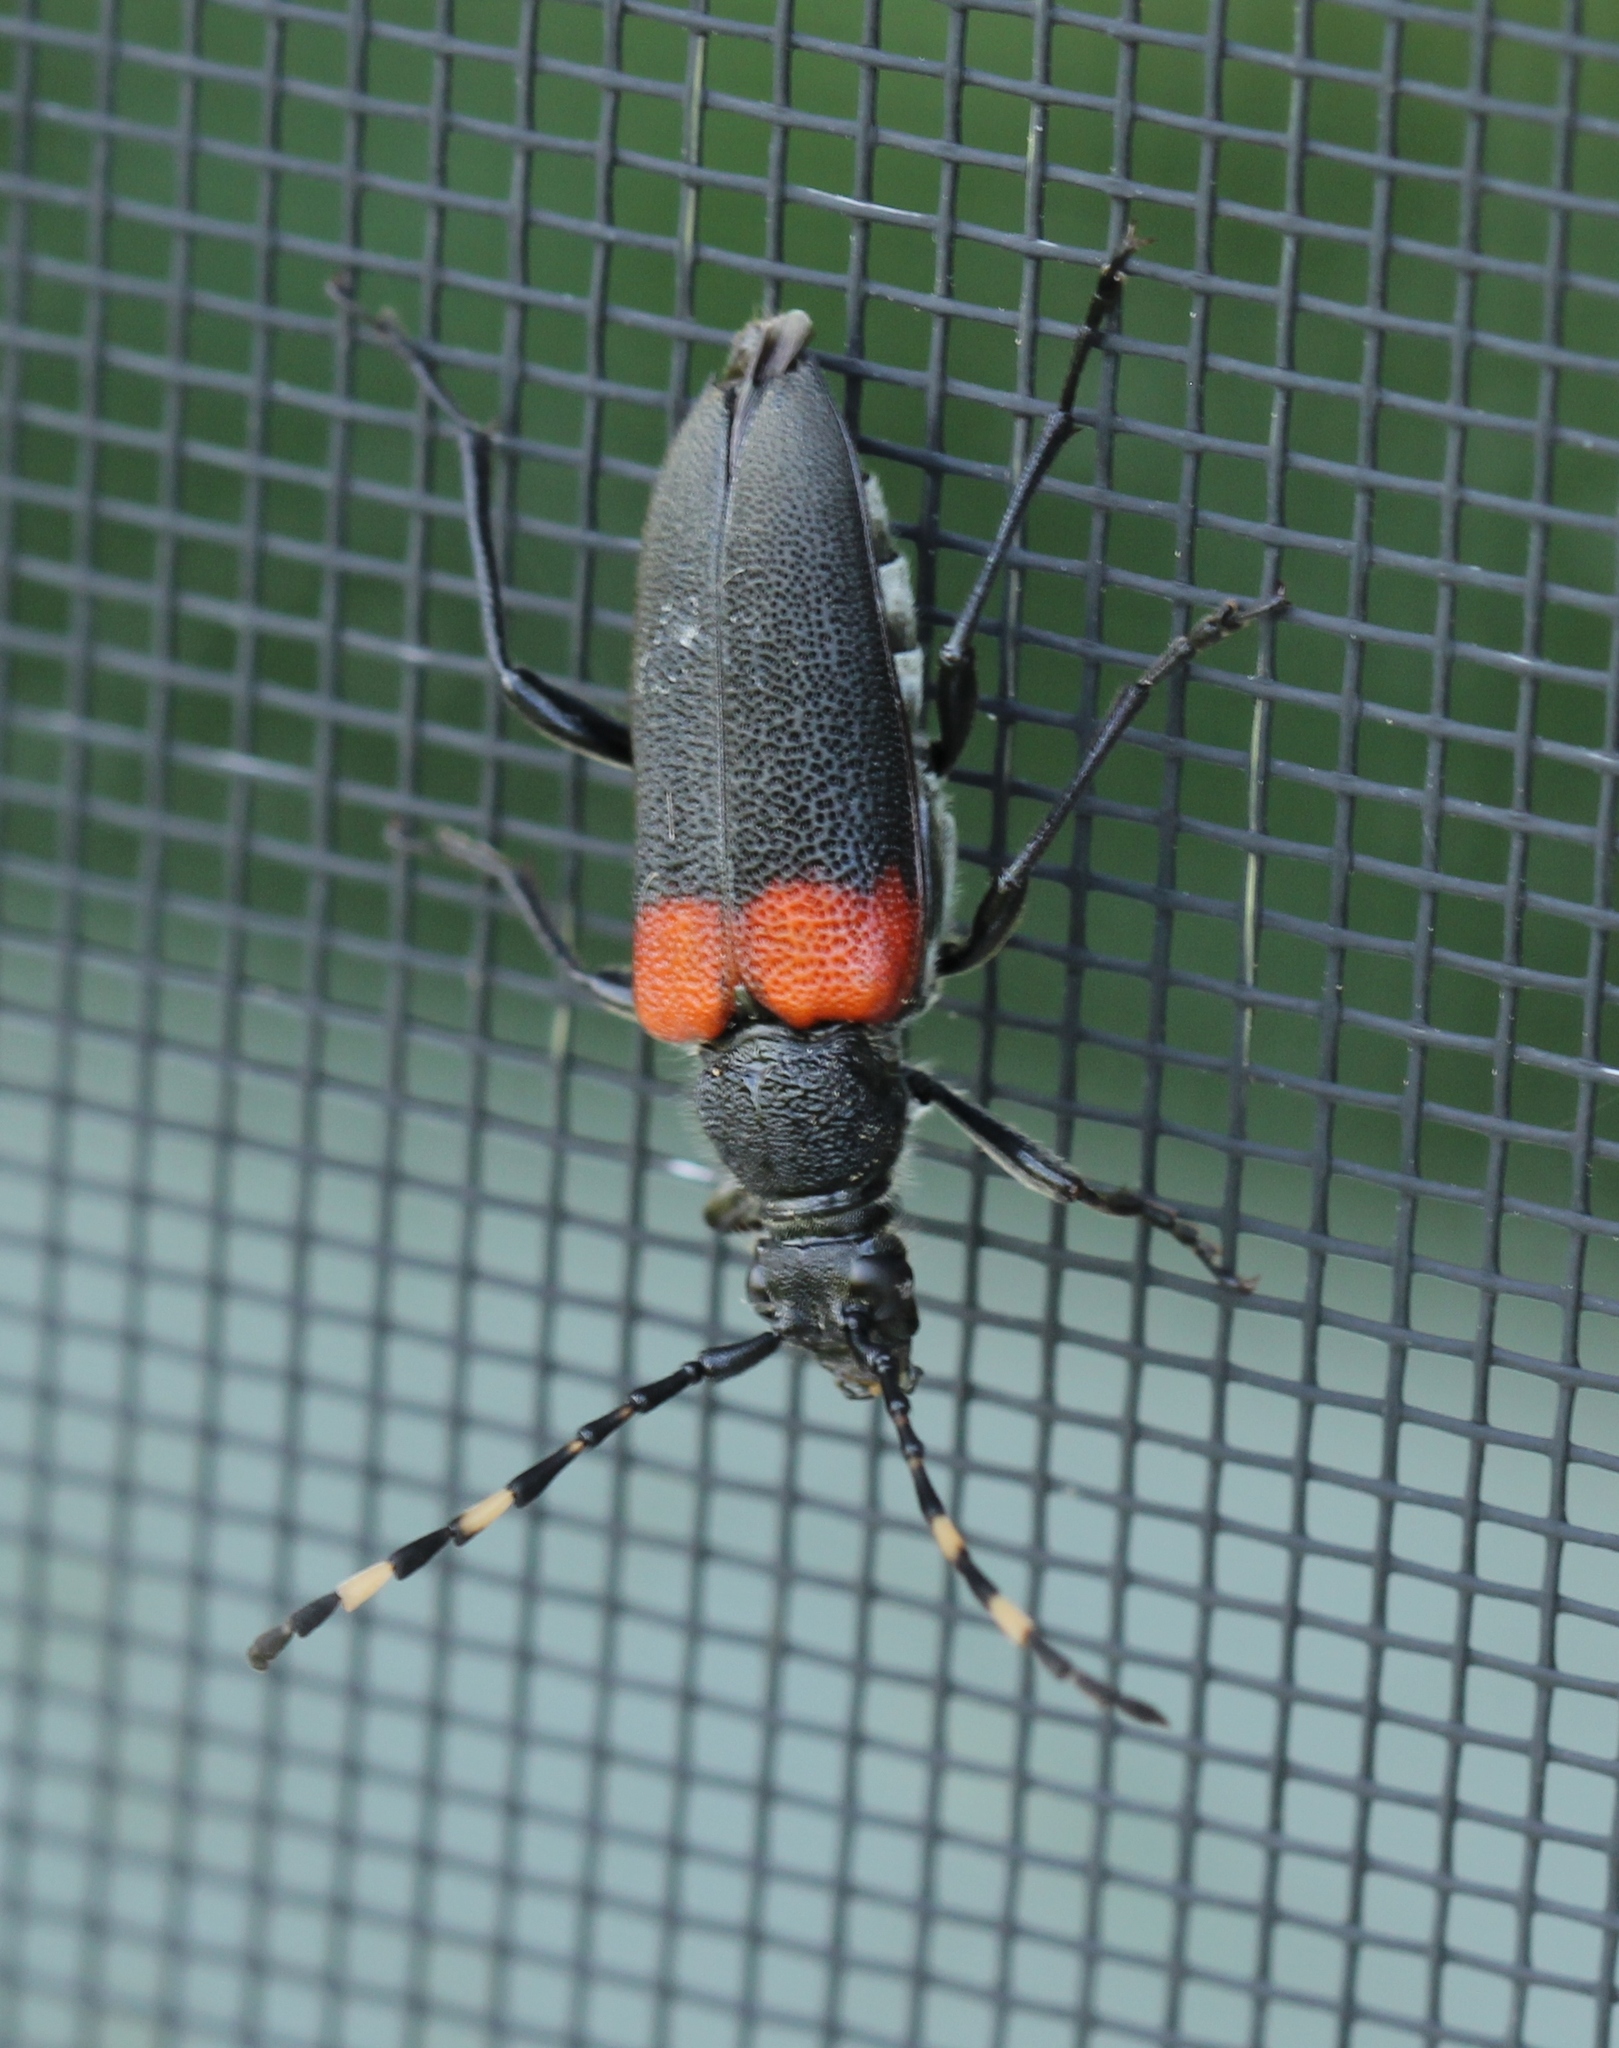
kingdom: Animalia
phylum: Arthropoda
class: Insecta
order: Coleoptera
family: Cerambycidae
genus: Stictoleptura
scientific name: Stictoleptura canadensis
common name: Red-shouldered pine borer
